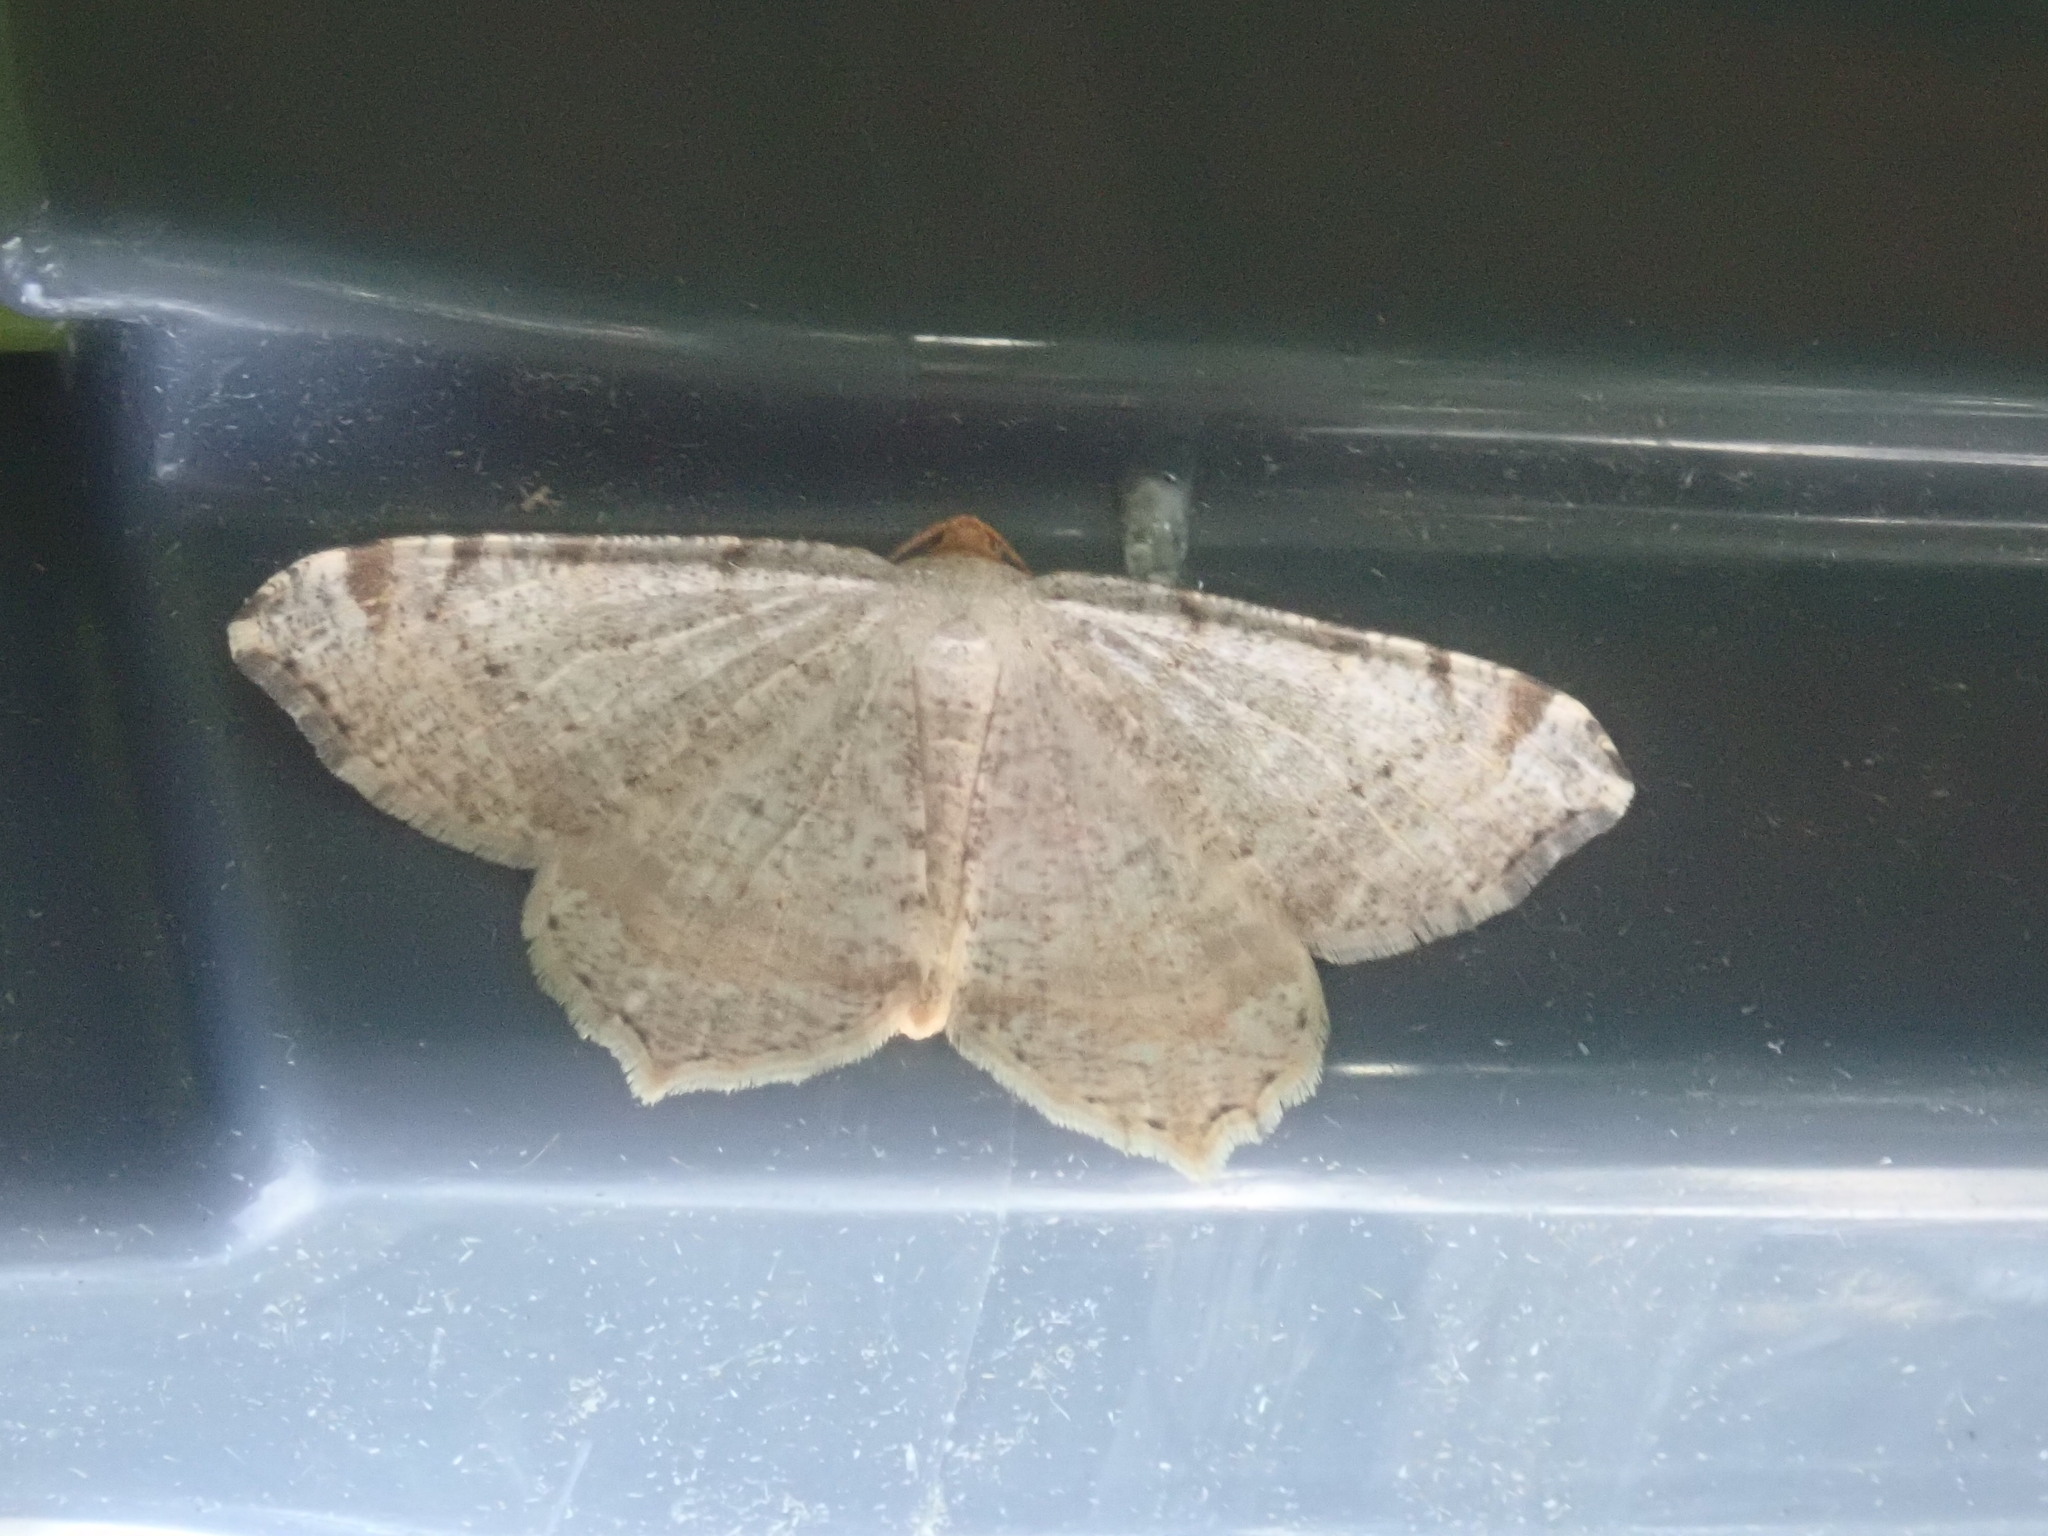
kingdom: Animalia
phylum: Arthropoda
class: Insecta
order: Lepidoptera
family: Geometridae
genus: Macaria
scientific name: Macaria bisignata
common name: Red-headed inchworm
